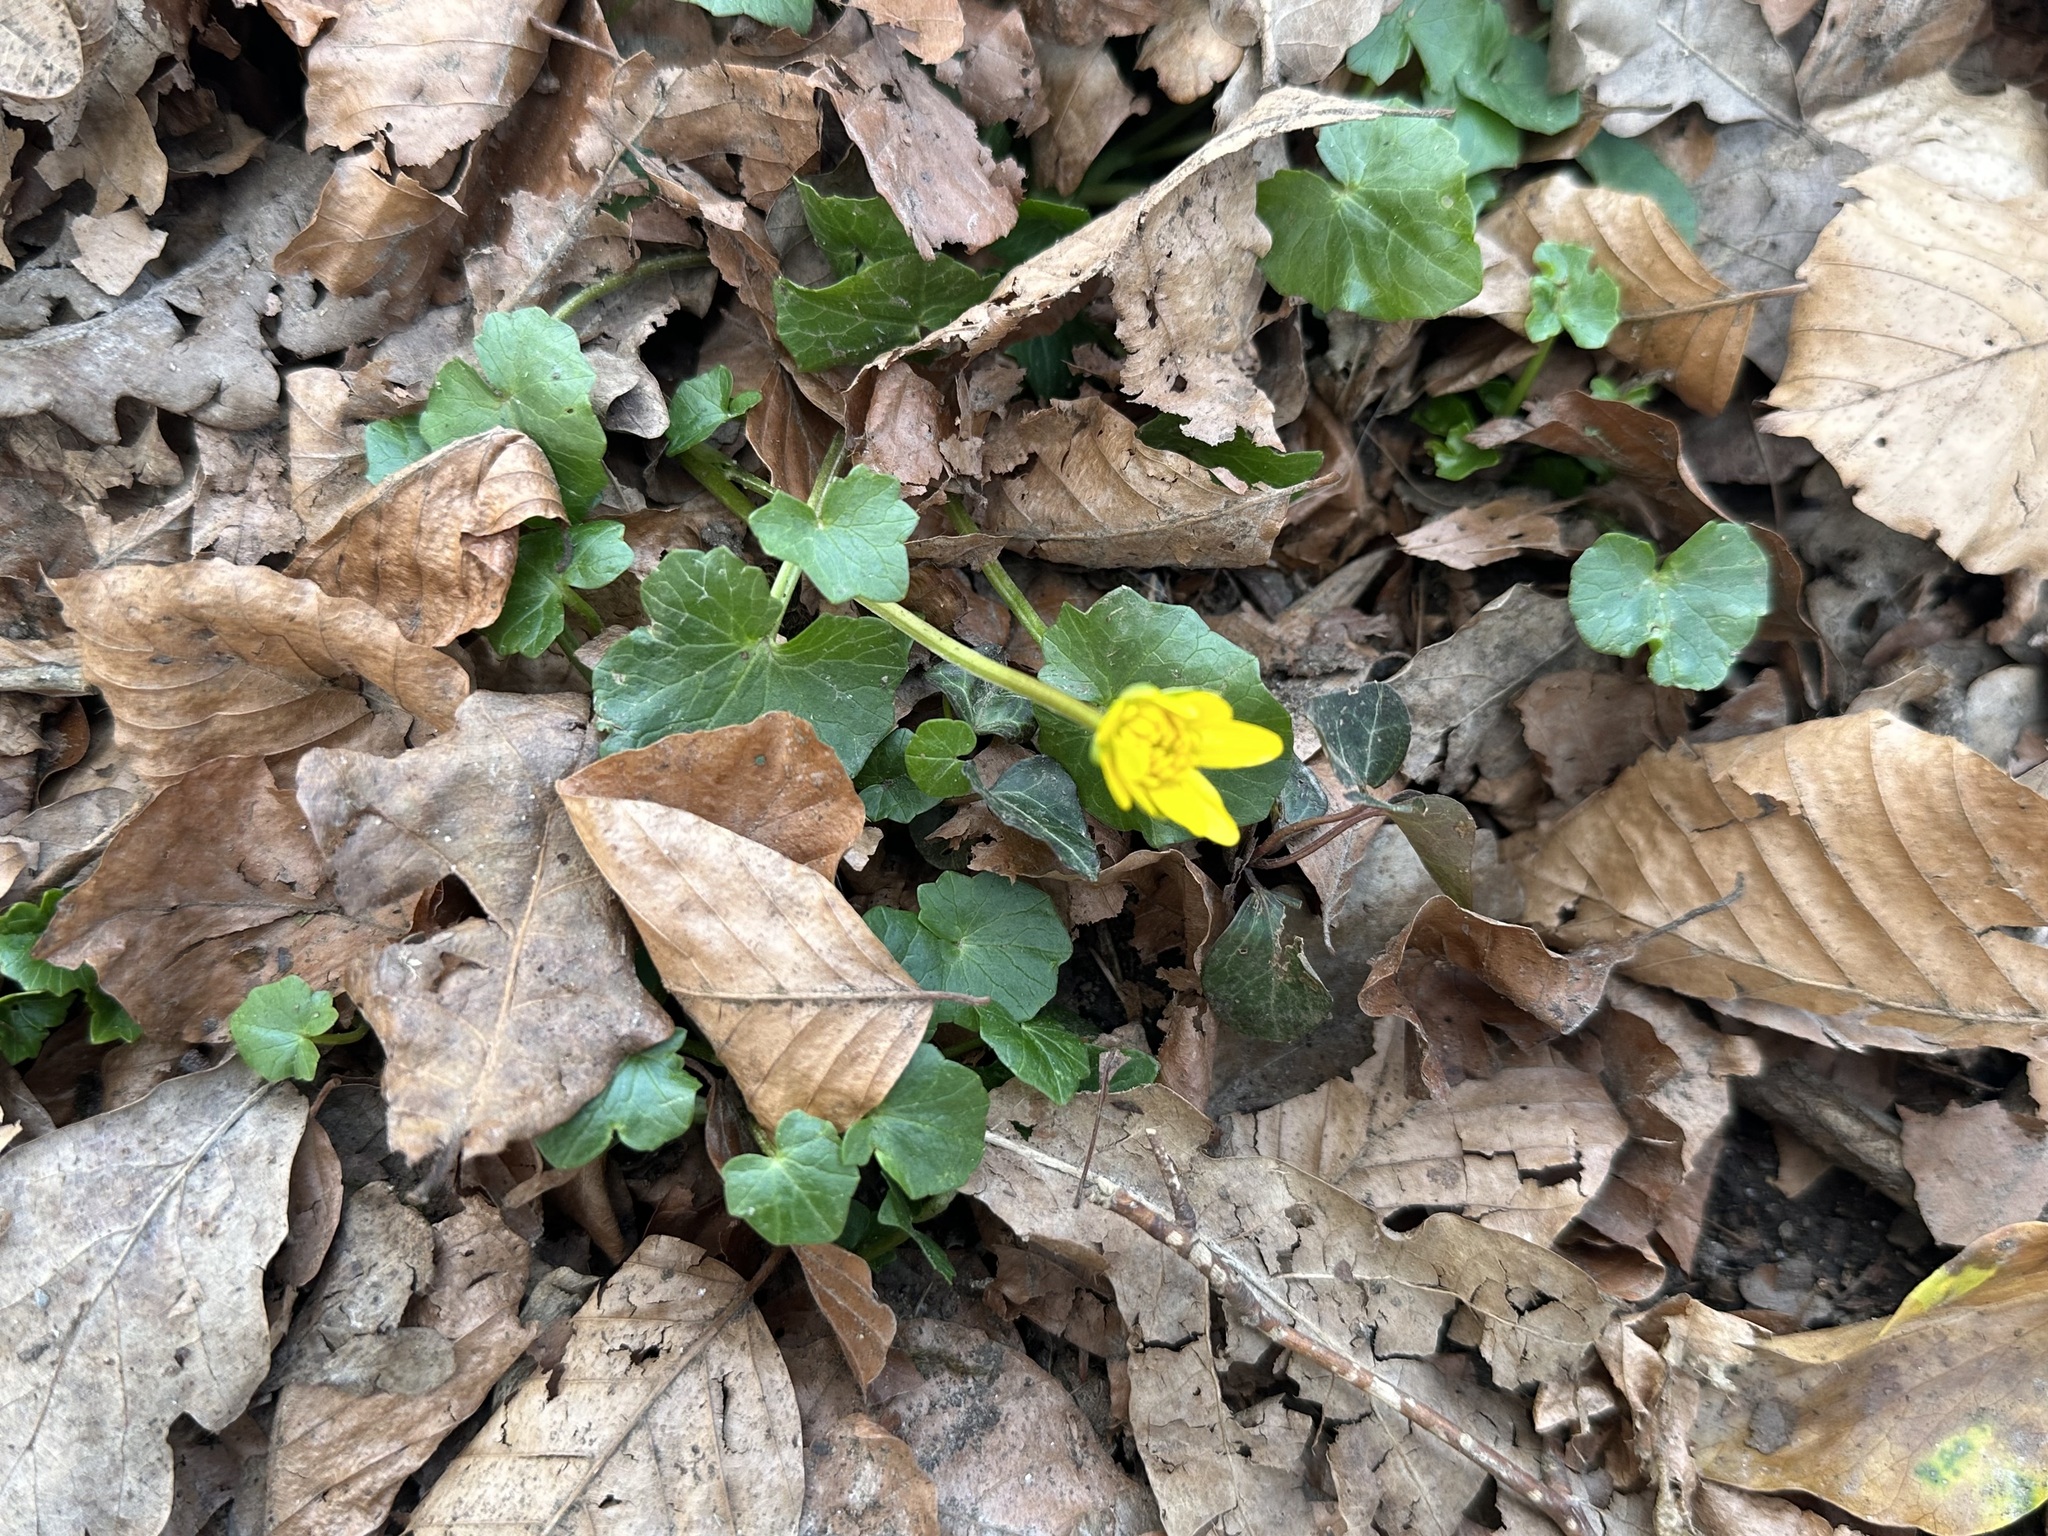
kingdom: Plantae
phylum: Tracheophyta
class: Magnoliopsida
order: Ranunculales
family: Ranunculaceae
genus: Ficaria
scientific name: Ficaria verna
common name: Lesser celandine
